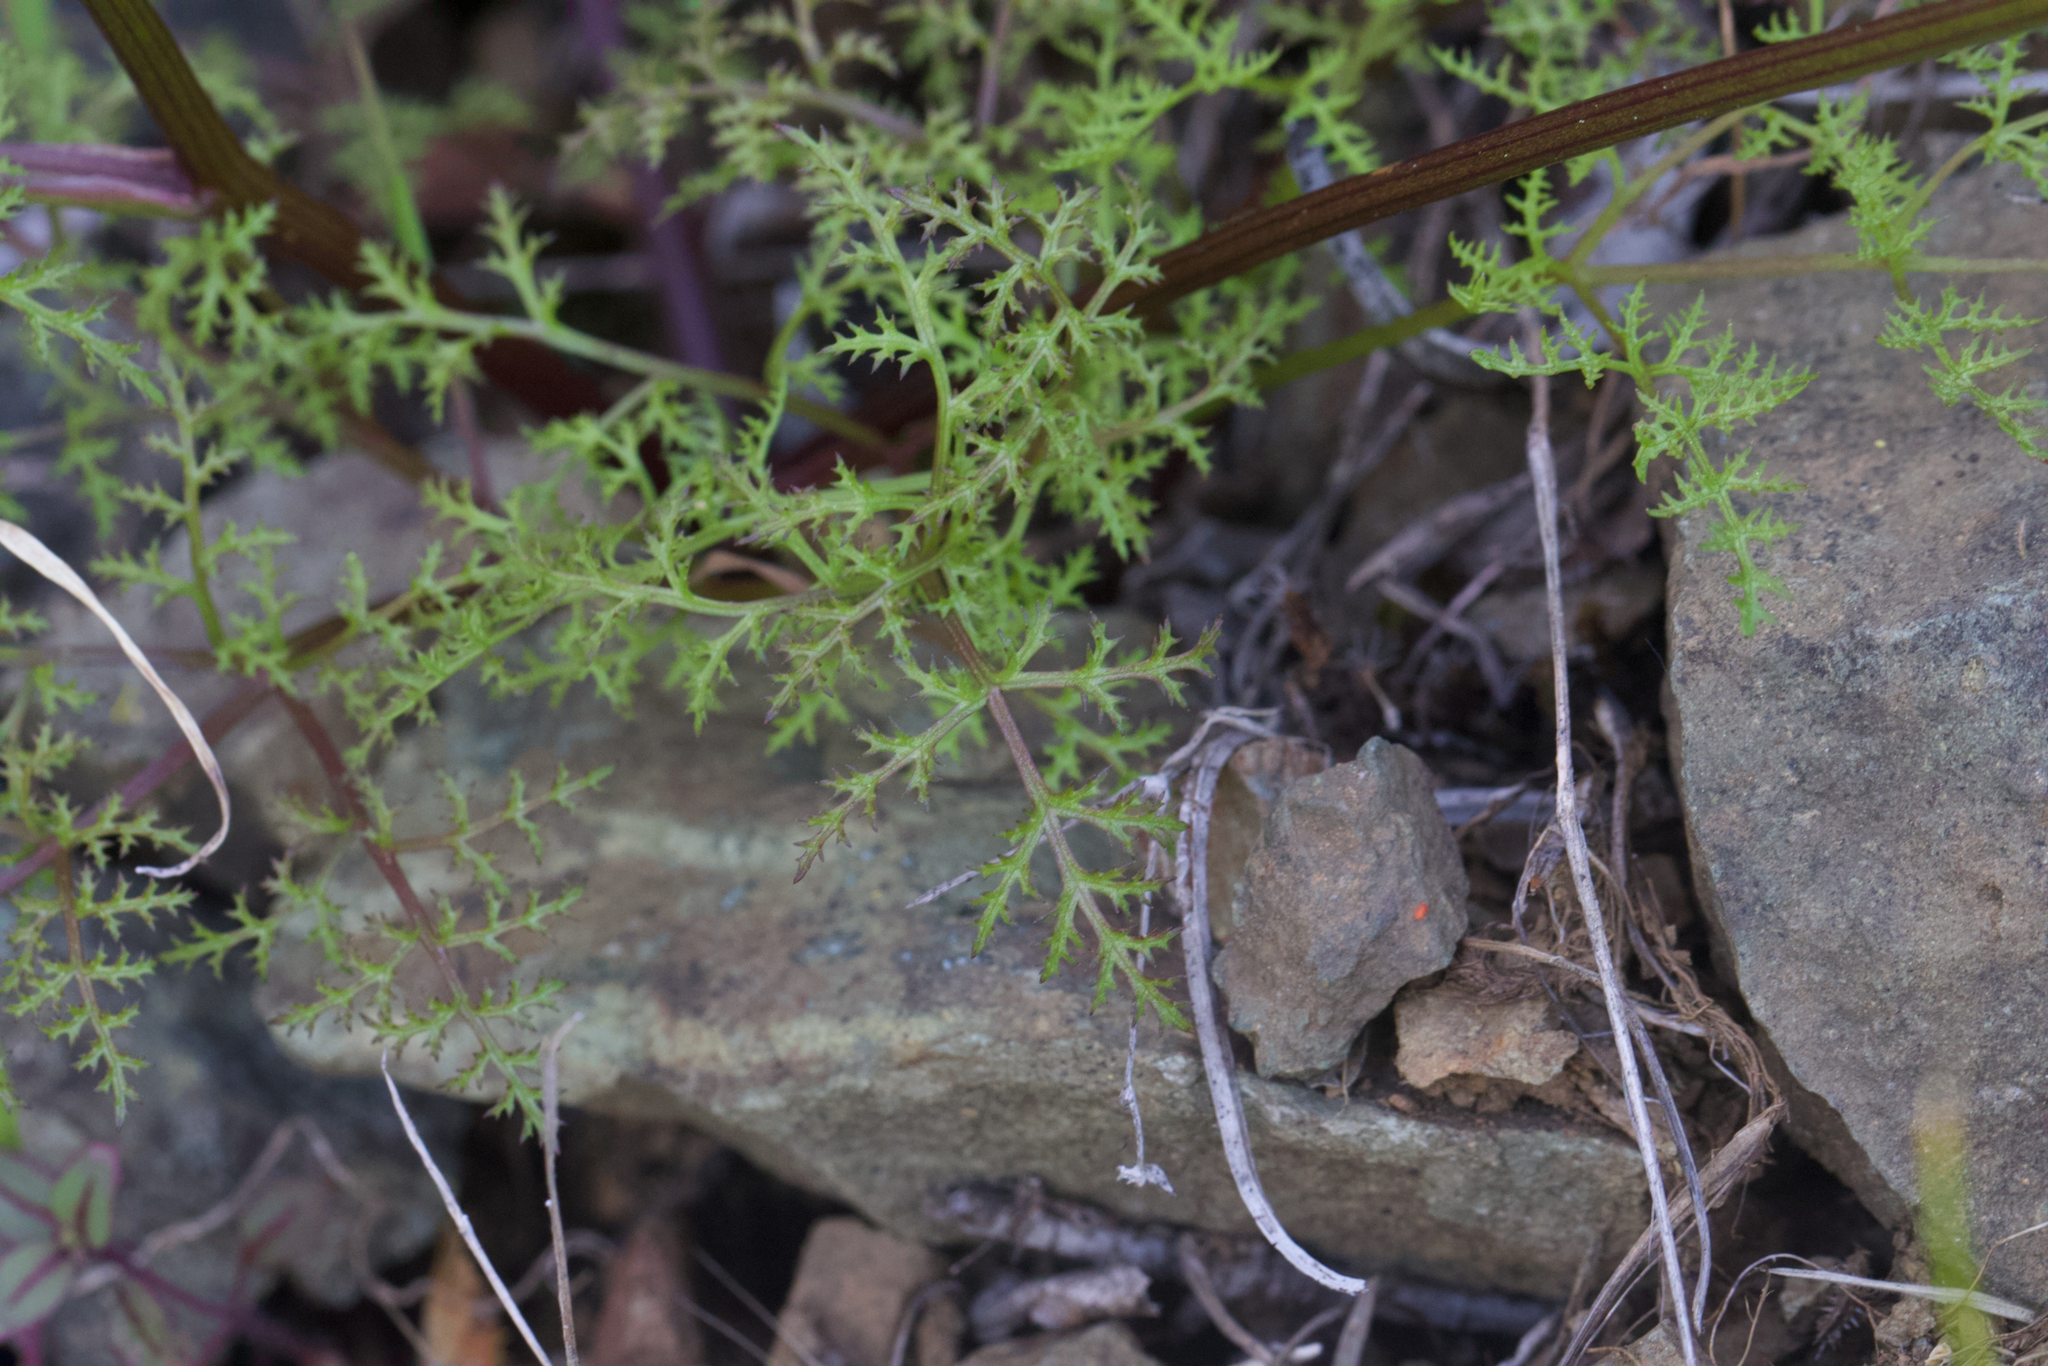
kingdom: Plantae
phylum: Tracheophyta
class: Magnoliopsida
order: Apiales
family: Apiaceae
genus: Sanicula
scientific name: Sanicula tuberosa
